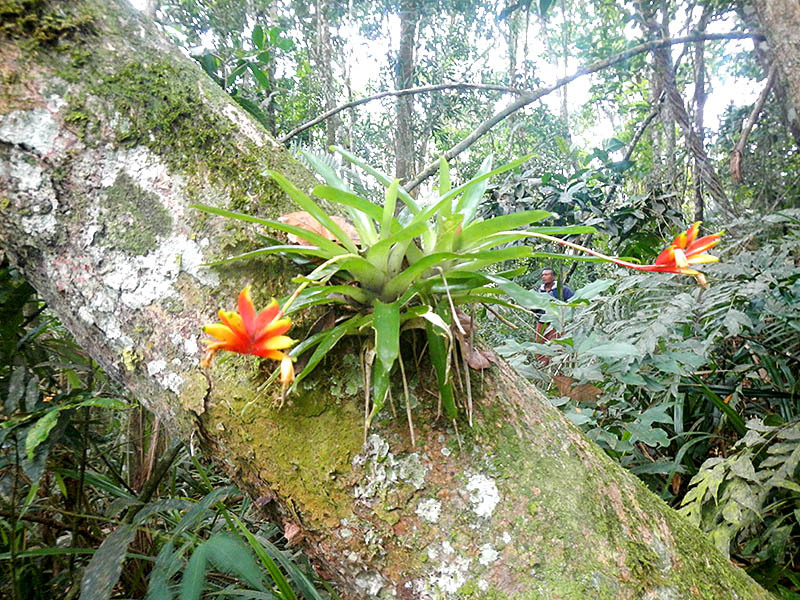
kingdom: Plantae
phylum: Tracheophyta
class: Liliopsida
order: Poales
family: Bromeliaceae
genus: Vriesea
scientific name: Vriesea carinata
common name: Lobster-claws
